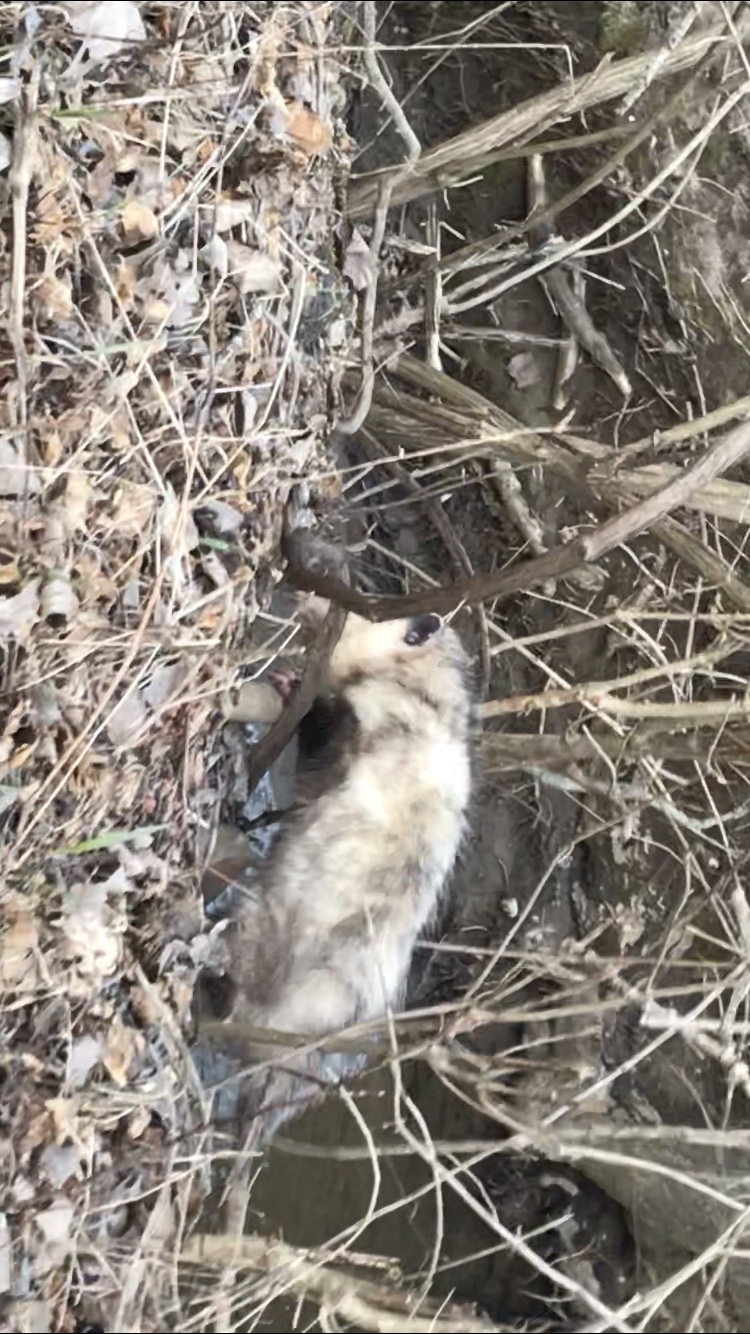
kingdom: Animalia
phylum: Chordata
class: Mammalia
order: Didelphimorphia
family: Didelphidae
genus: Didelphis
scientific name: Didelphis virginiana
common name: Virginia opossum
